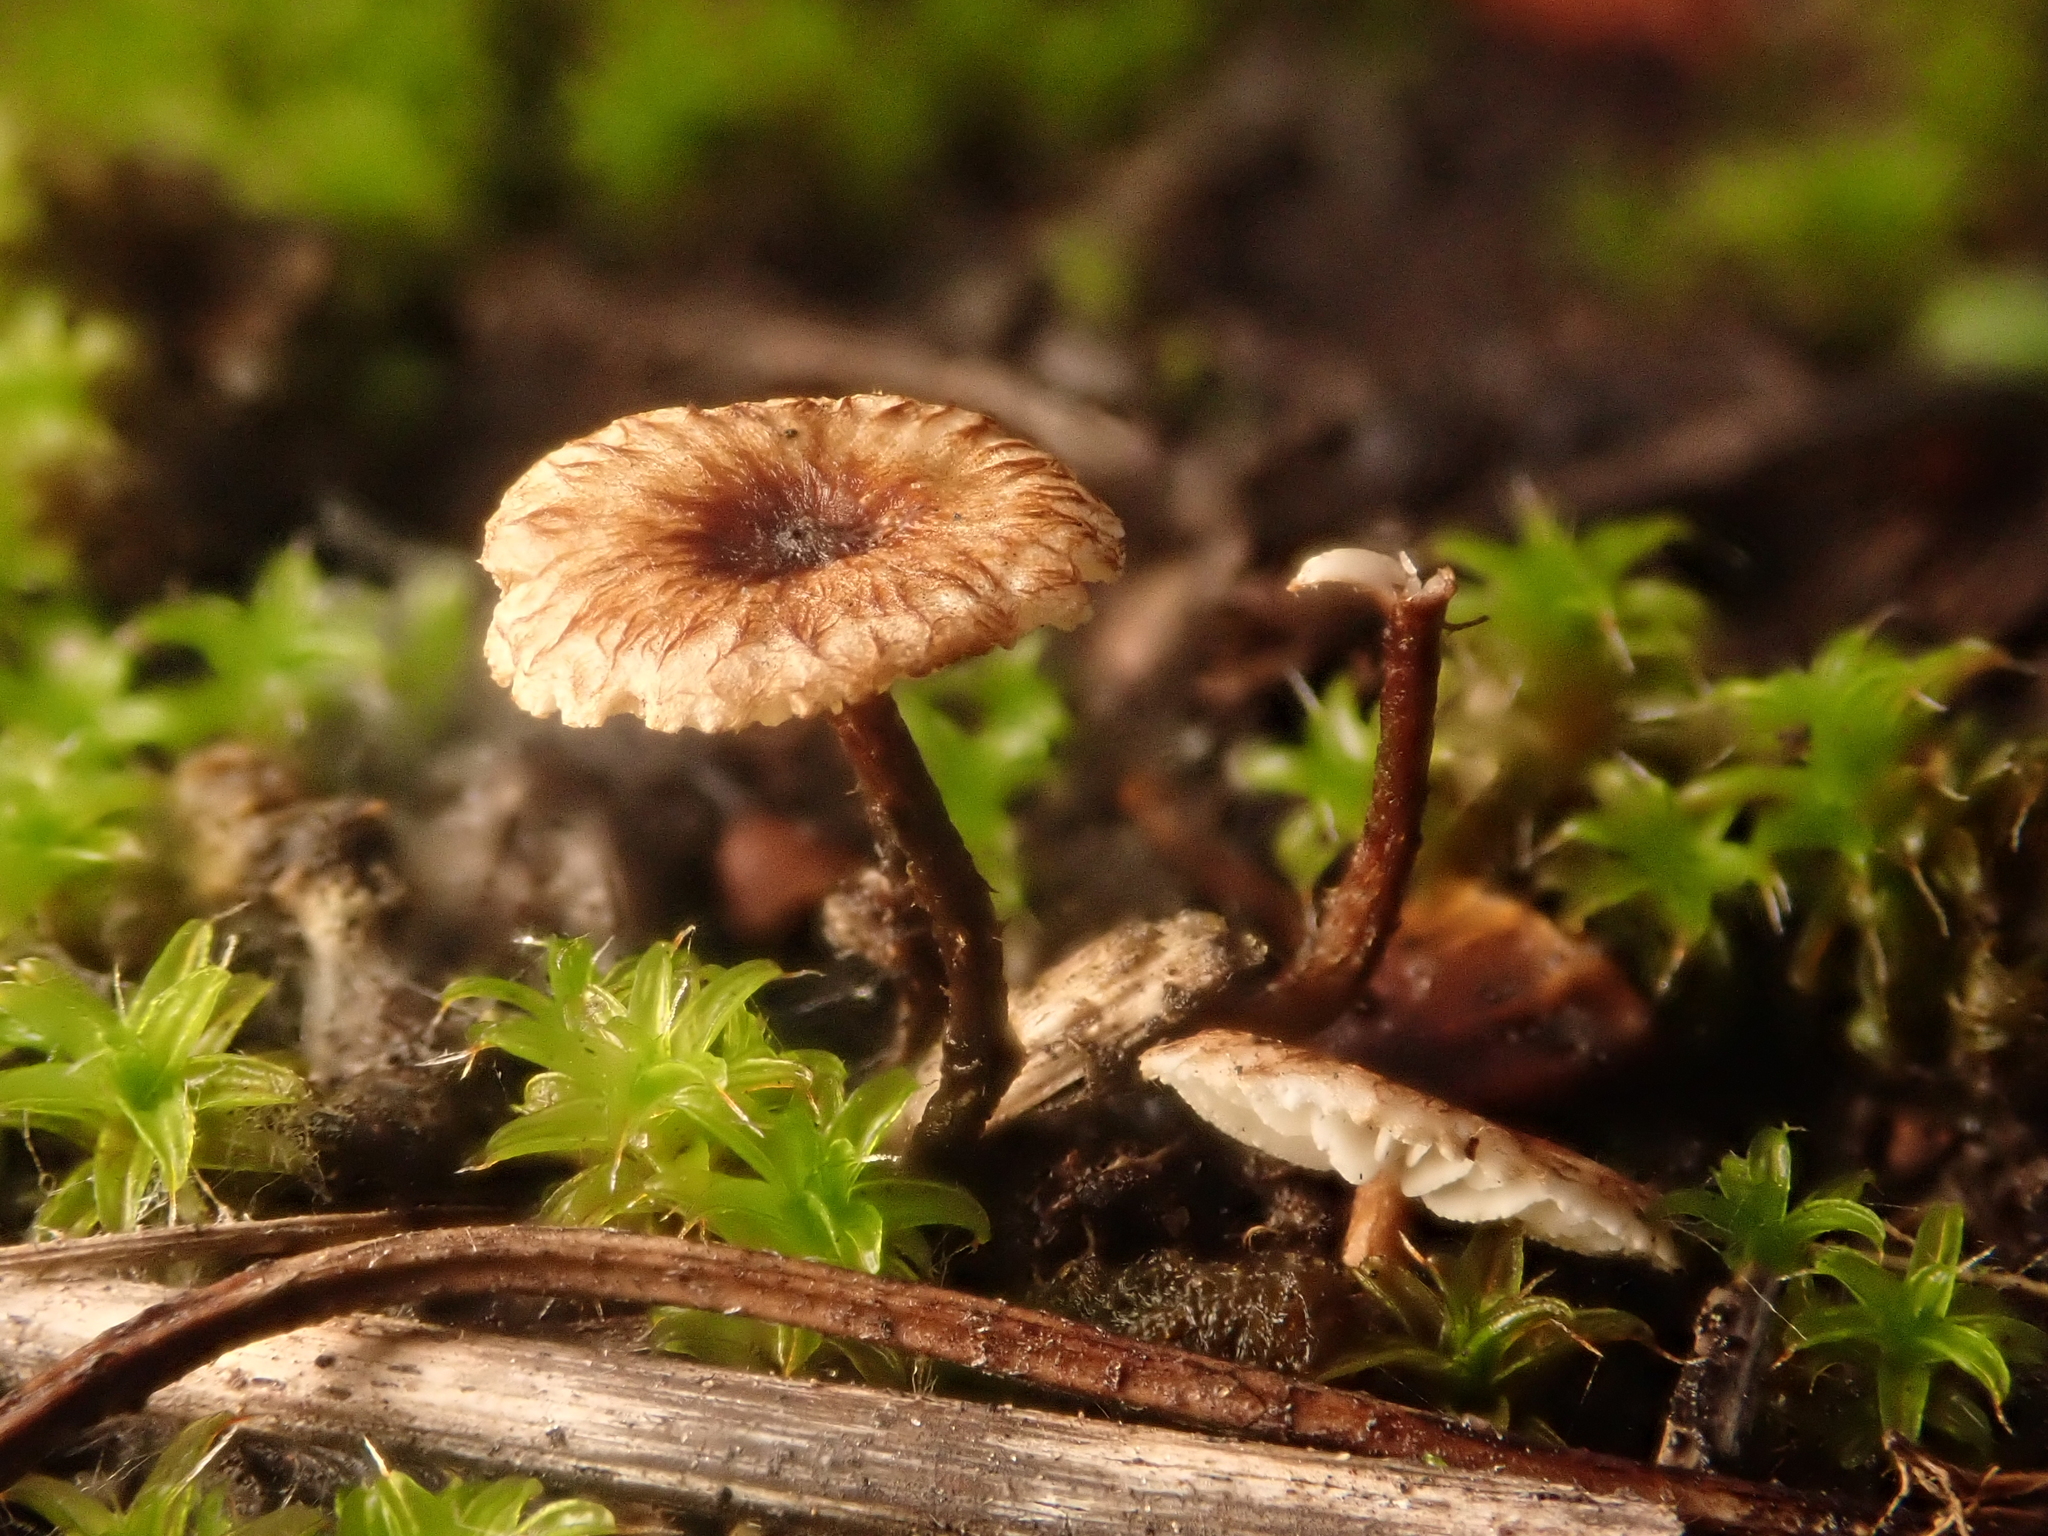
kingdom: Fungi
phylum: Basidiomycota
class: Agaricomycetes
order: Agaricales
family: Marasmiaceae
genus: Crinipellis
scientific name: Crinipellis scabella
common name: Hairy parachute
